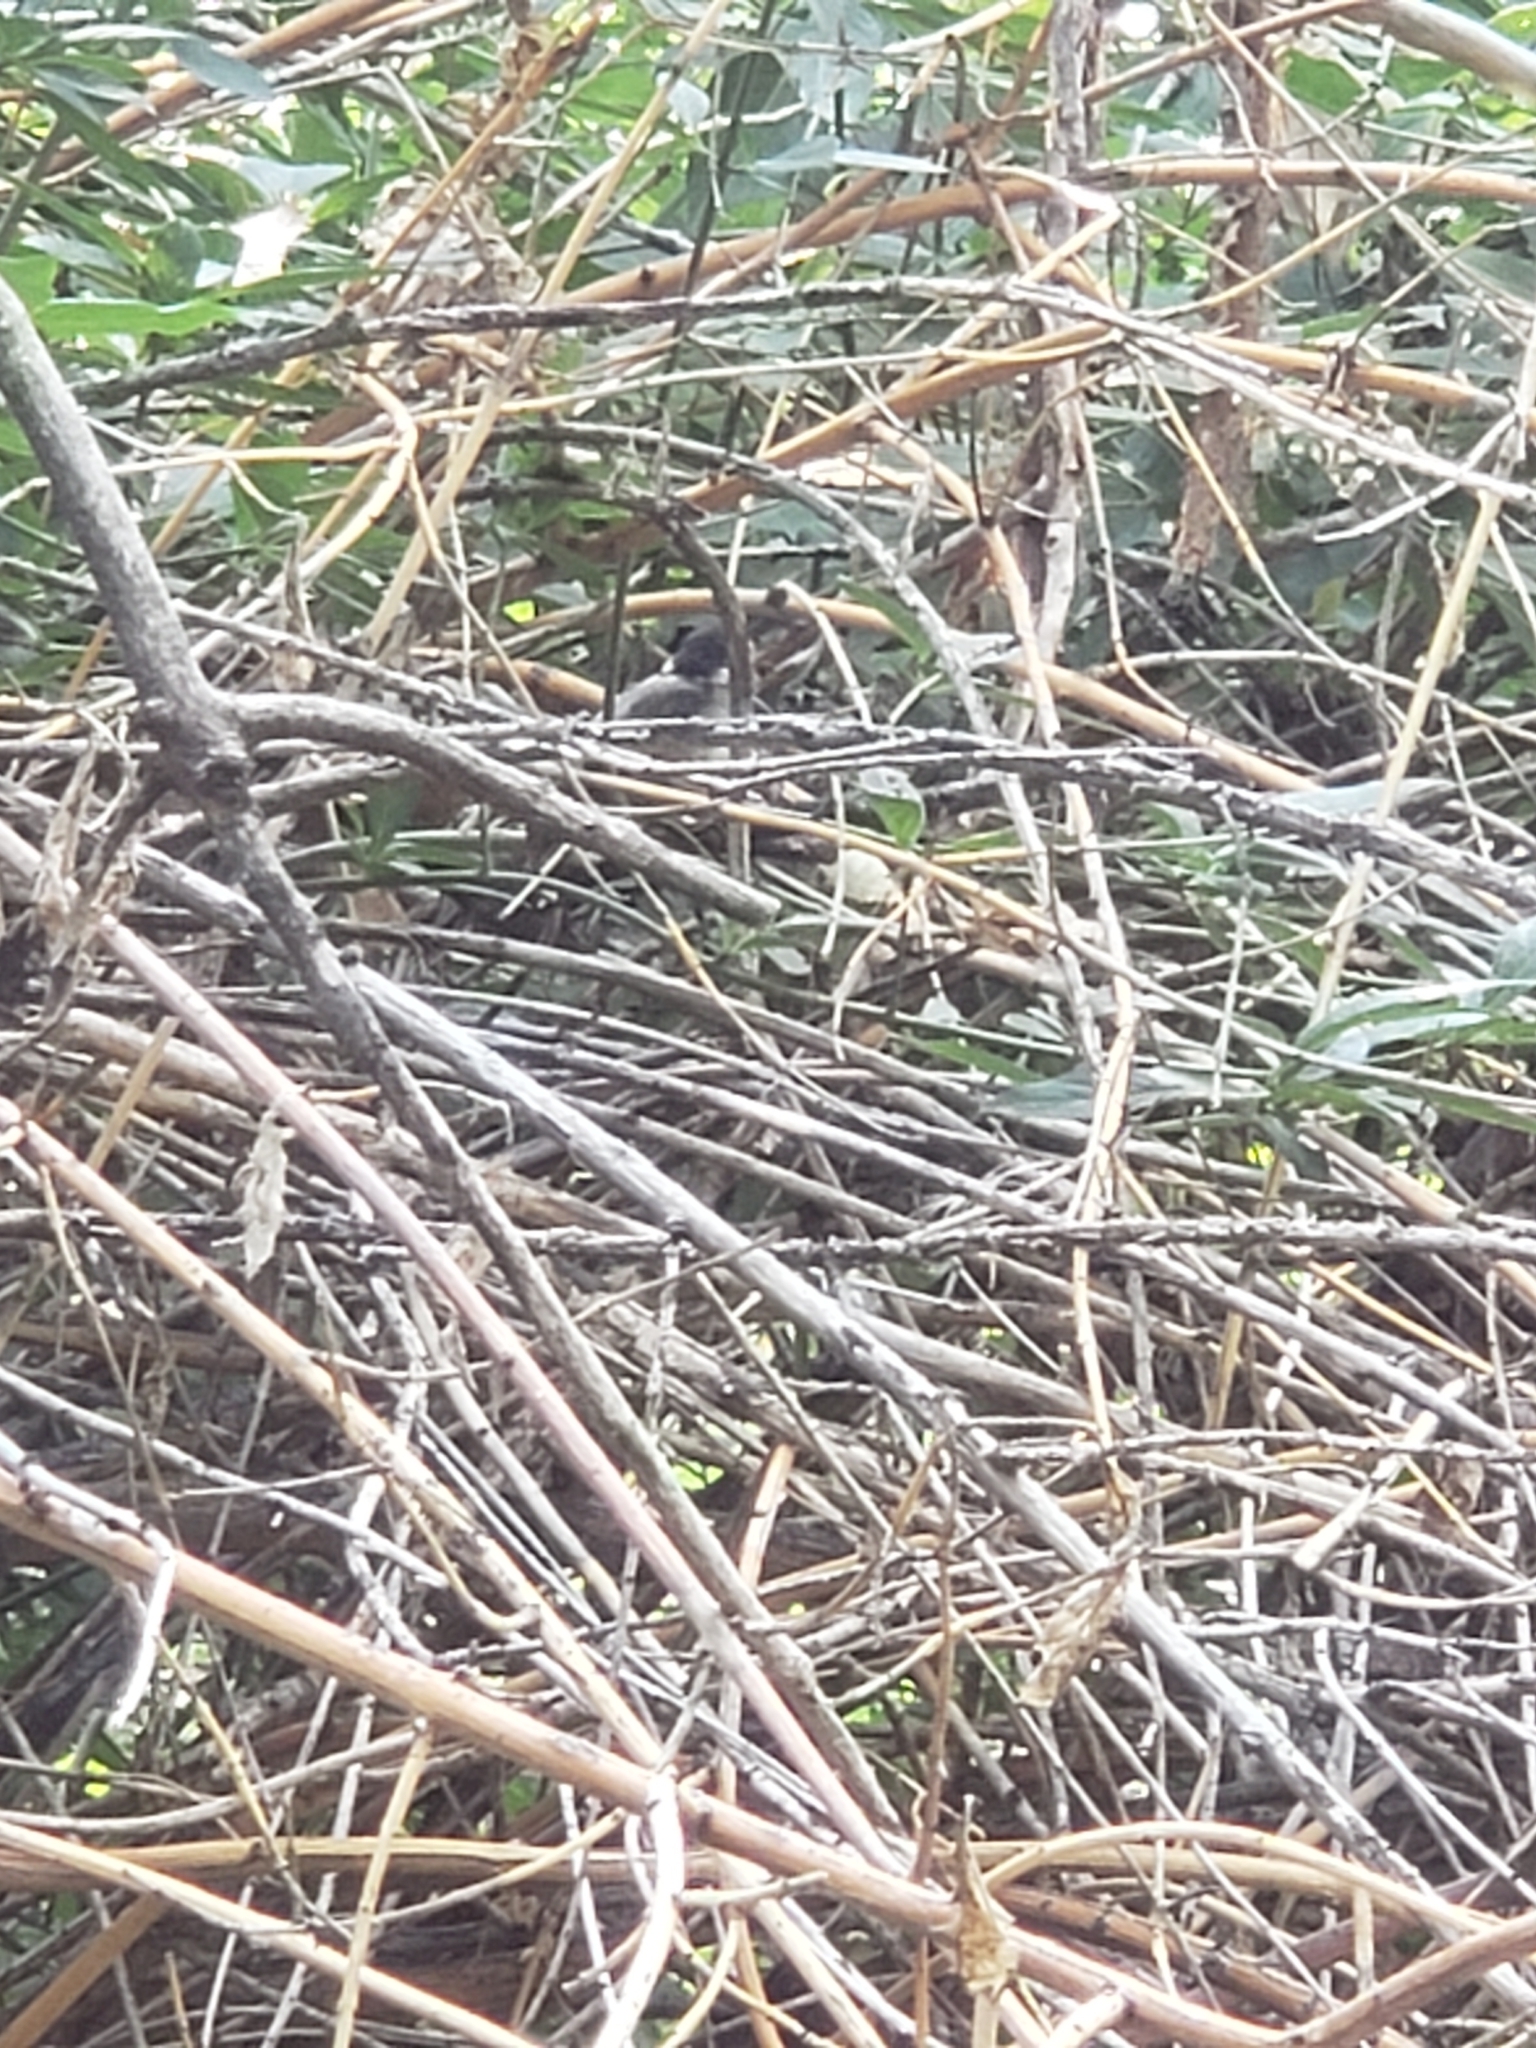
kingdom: Animalia
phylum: Chordata
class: Aves
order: Passeriformes
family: Paridae
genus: Poecile
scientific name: Poecile atricapillus
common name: Black-capped chickadee
